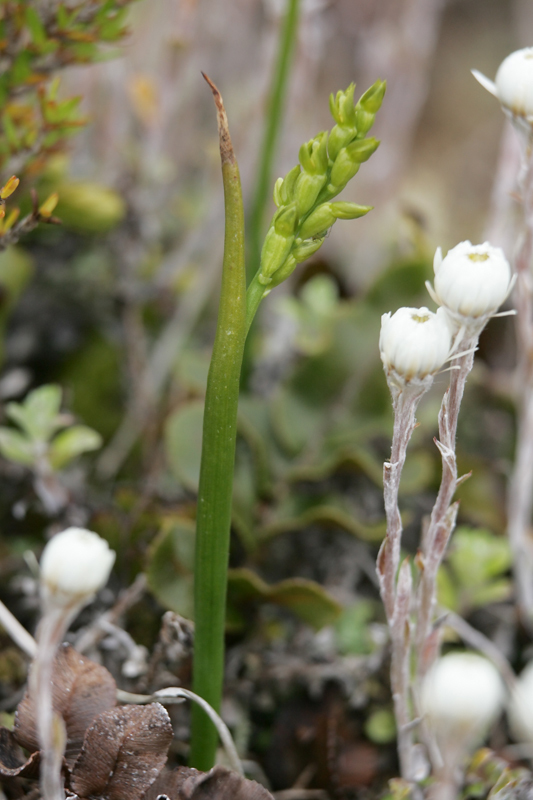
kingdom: Plantae
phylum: Tracheophyta
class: Liliopsida
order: Asparagales
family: Orchidaceae
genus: Prasophyllum
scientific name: Prasophyllum colensoi
